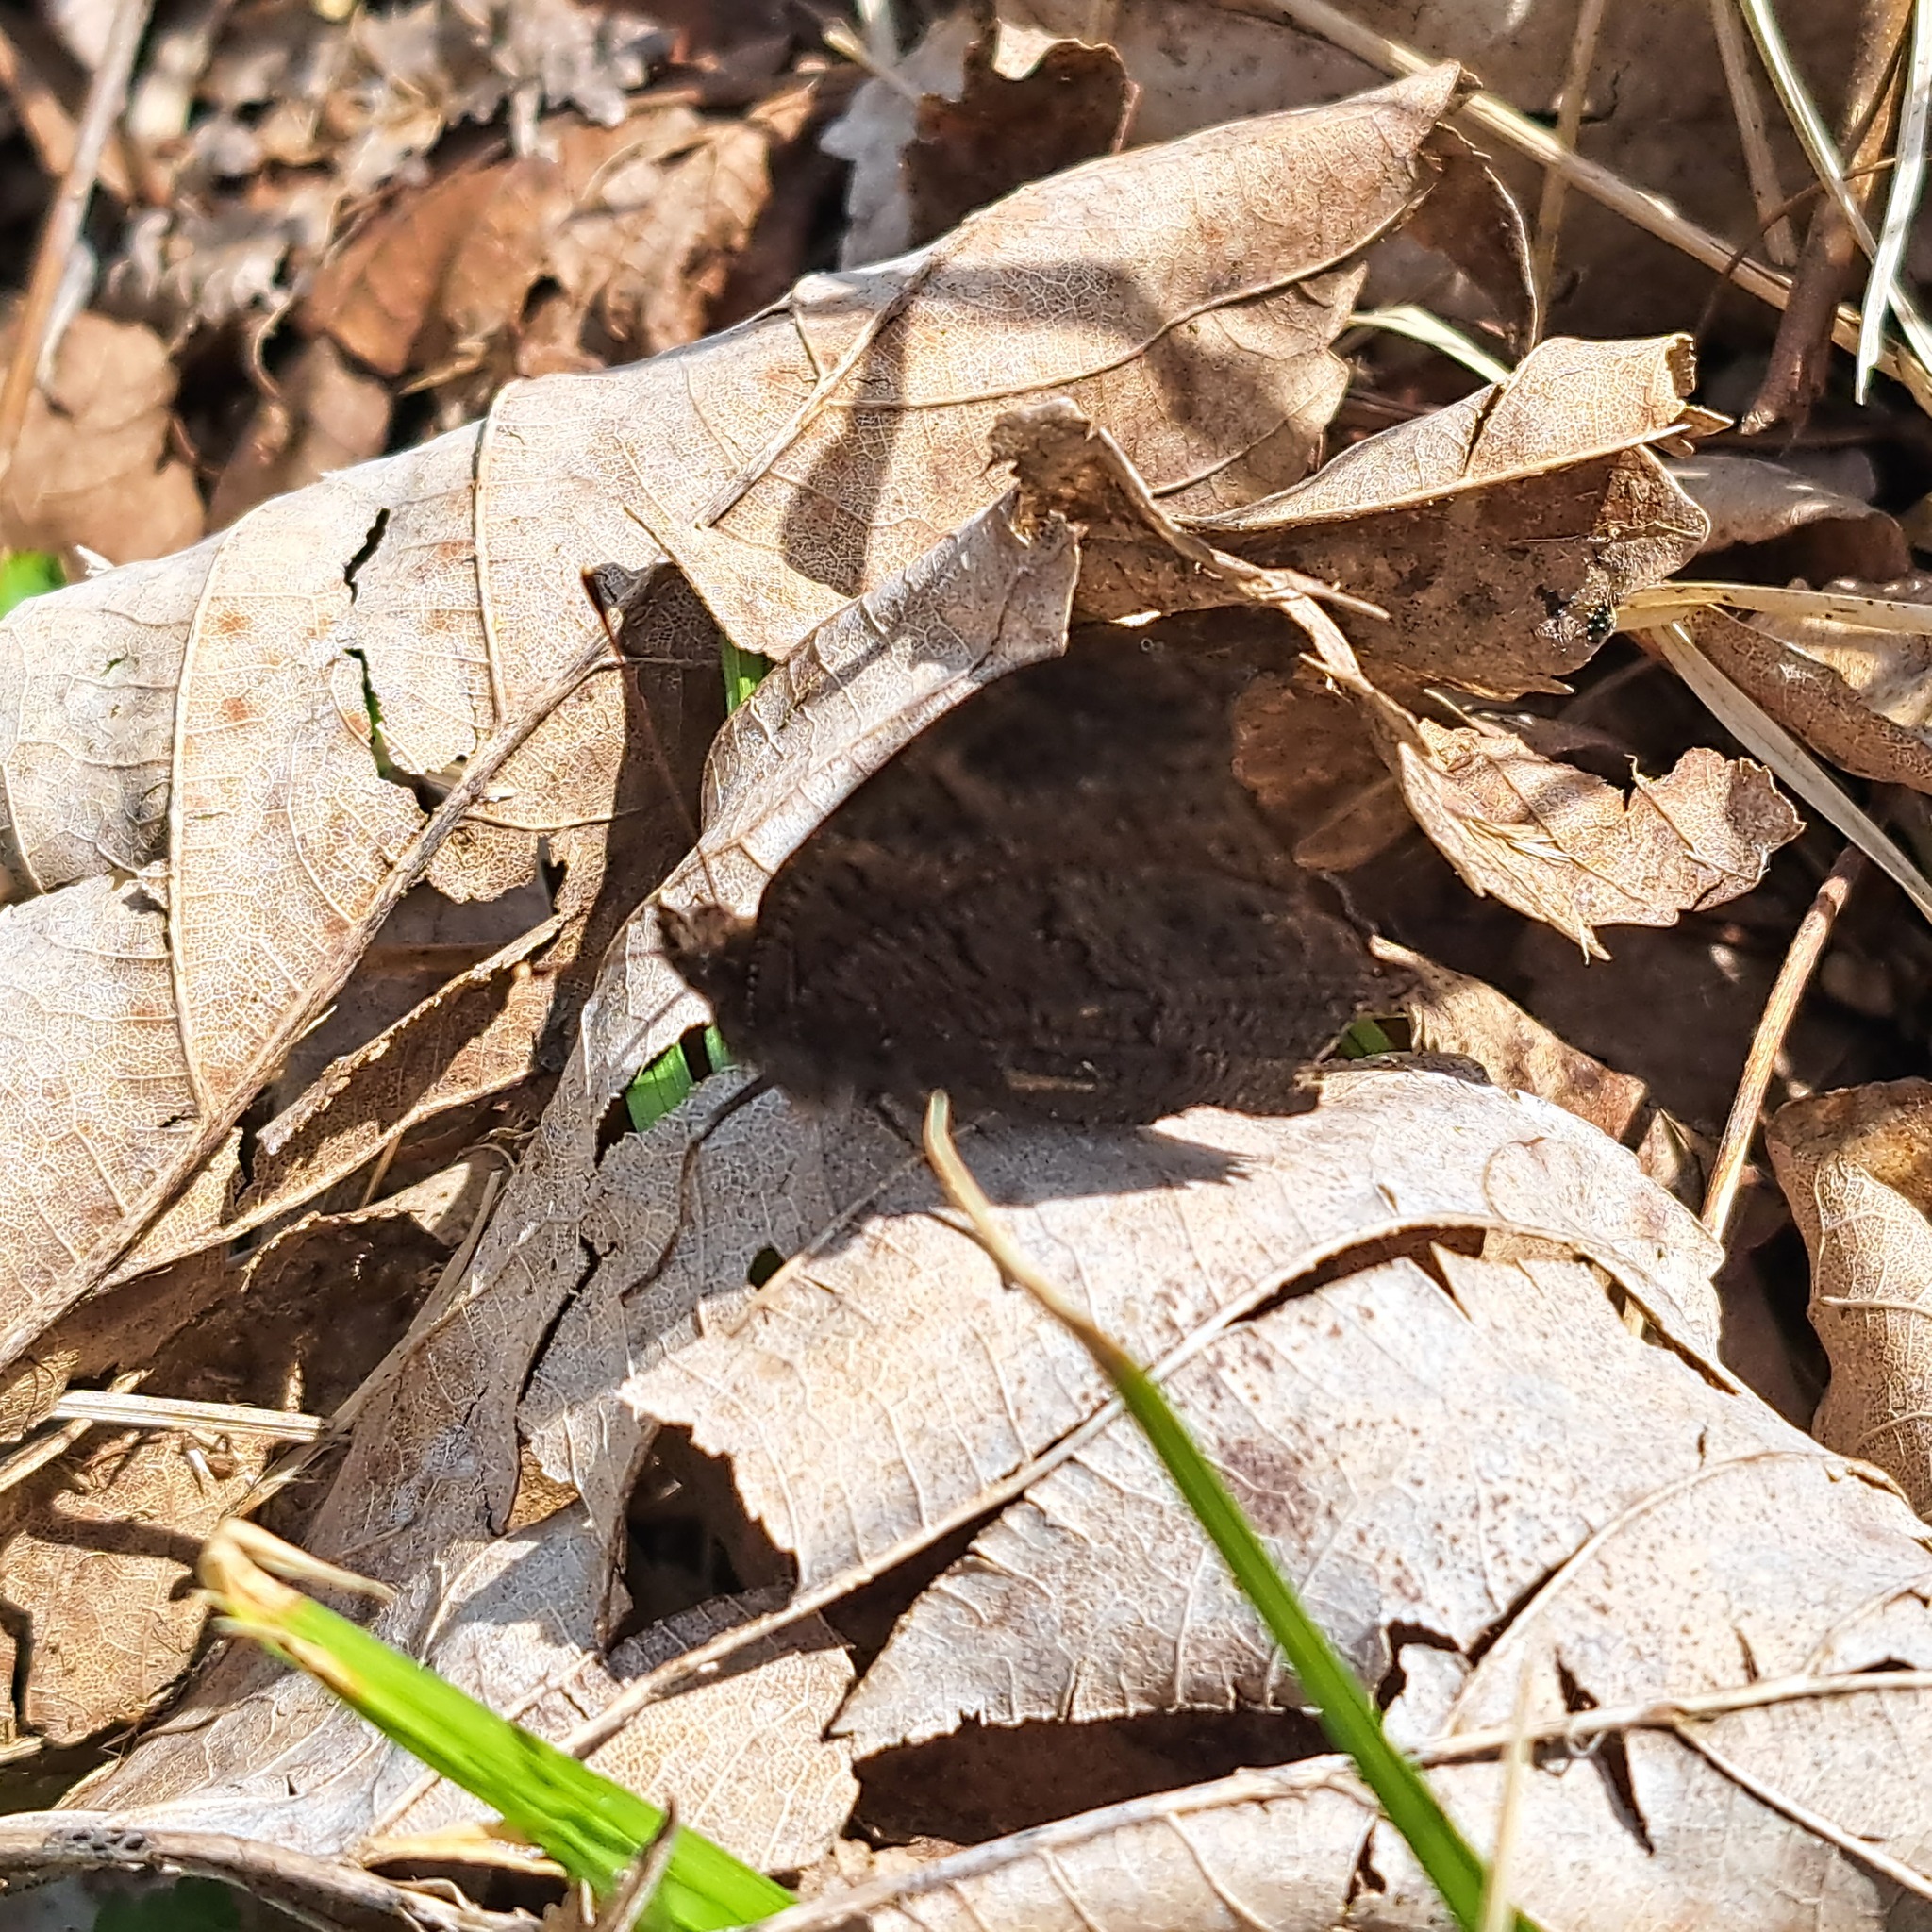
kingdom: Animalia
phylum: Arthropoda
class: Insecta
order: Lepidoptera
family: Nymphalidae
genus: Aglais
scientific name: Aglais io
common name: Peacock
